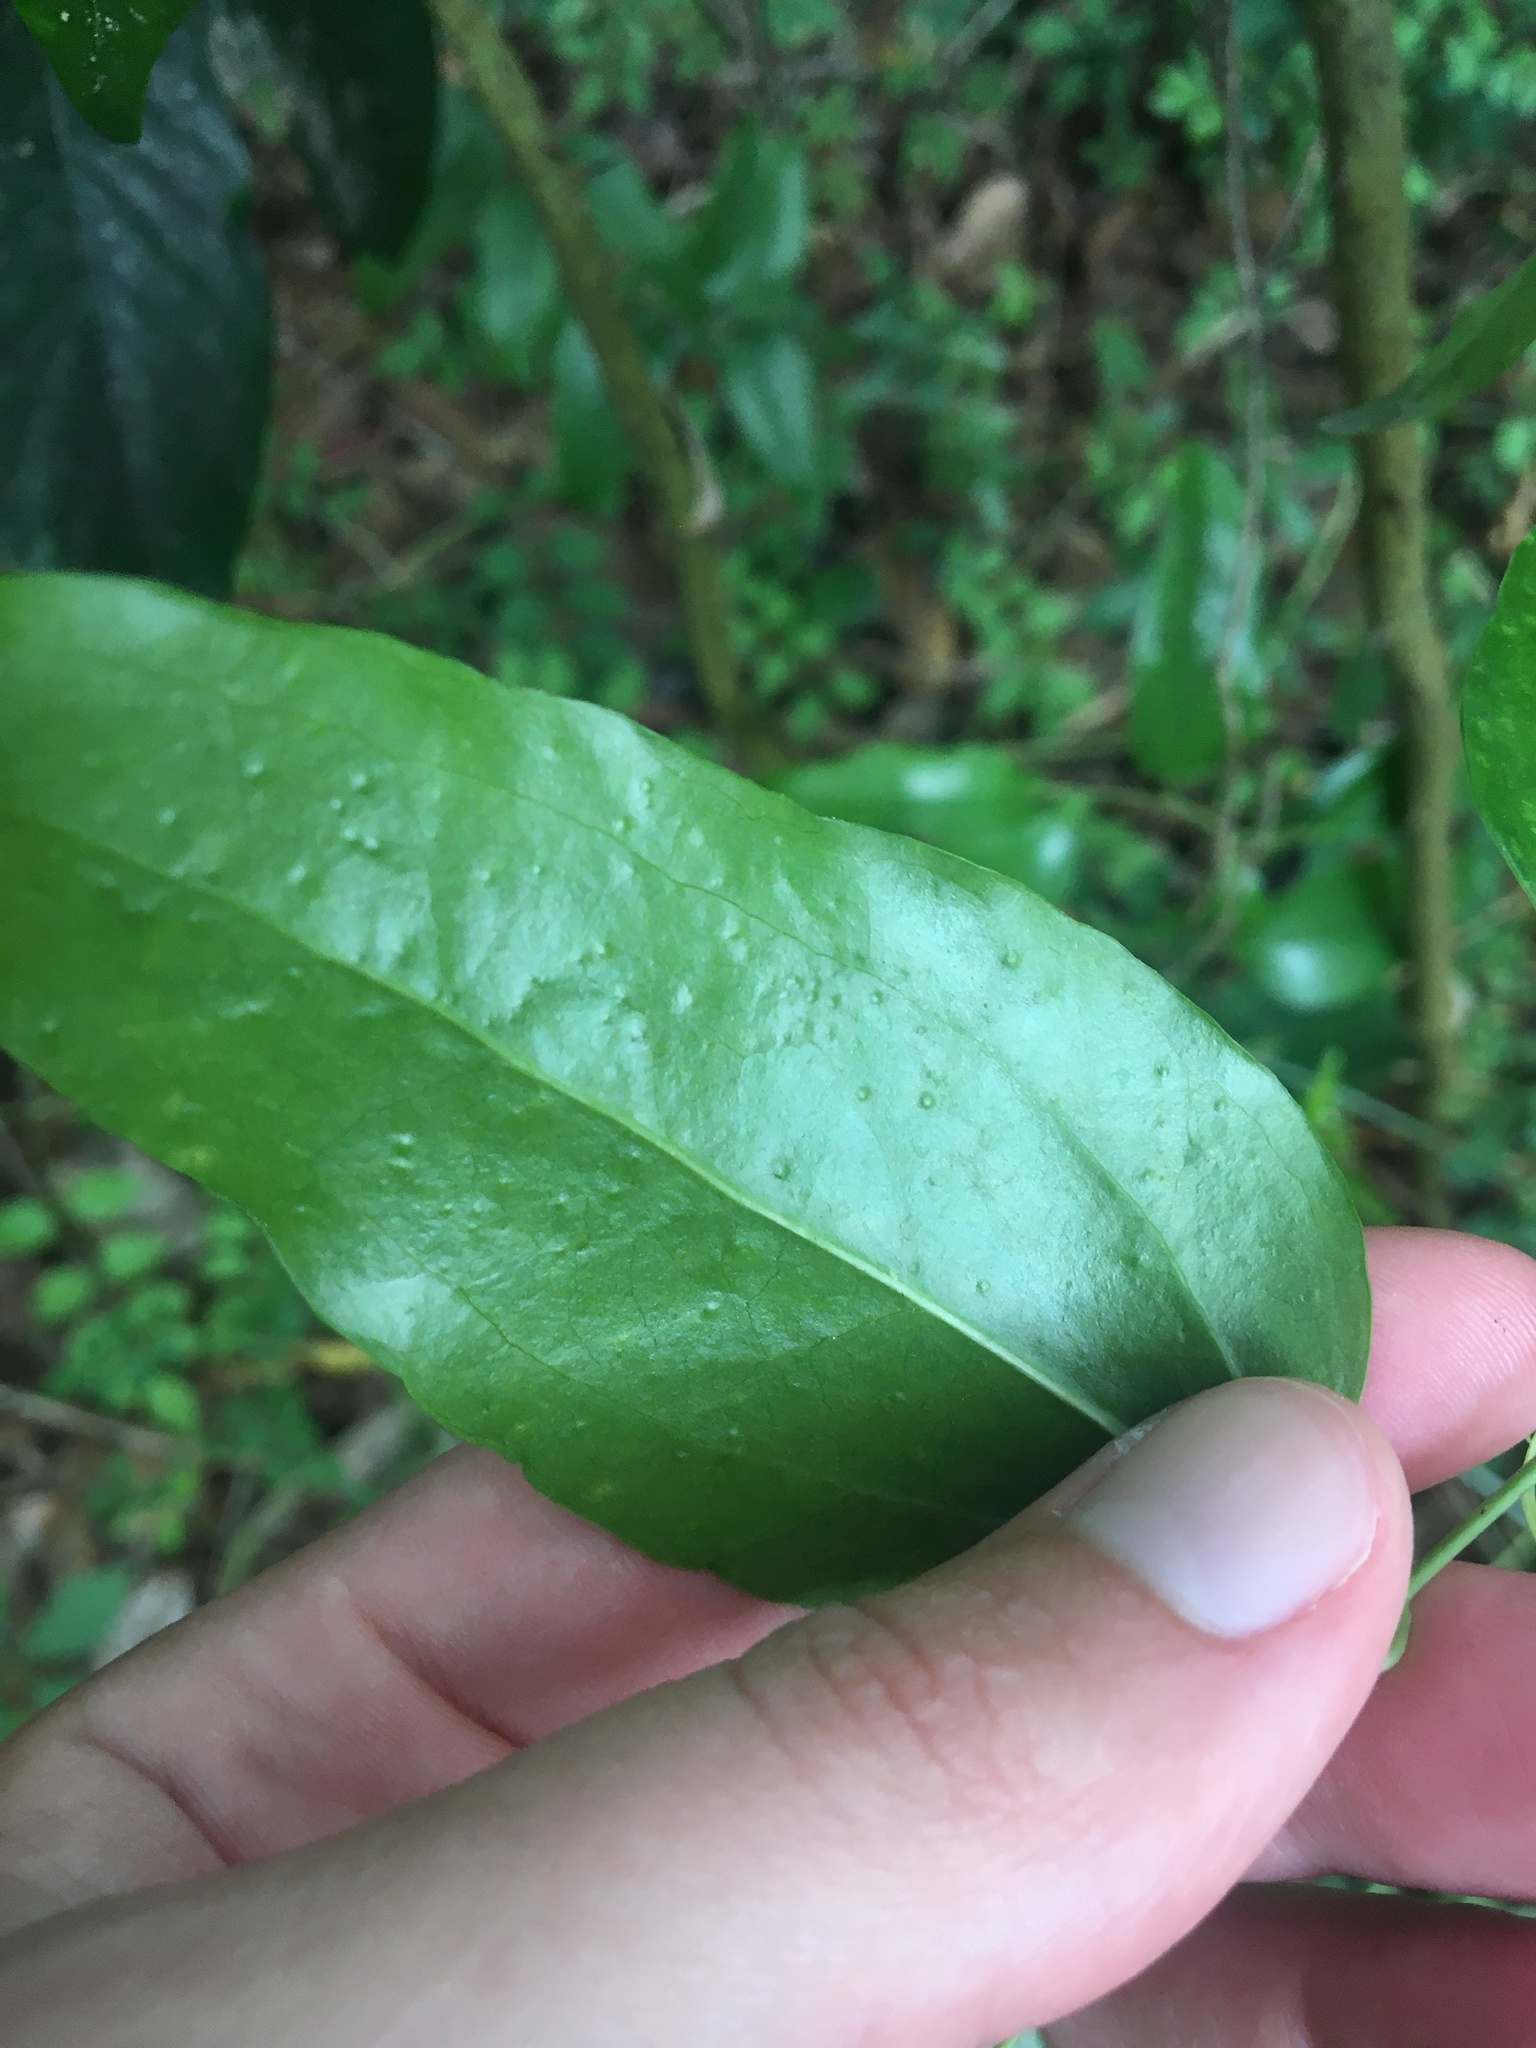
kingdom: Plantae
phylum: Tracheophyta
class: Liliopsida
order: Liliales
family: Smilacaceae
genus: Smilax
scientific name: Smilax maritima
